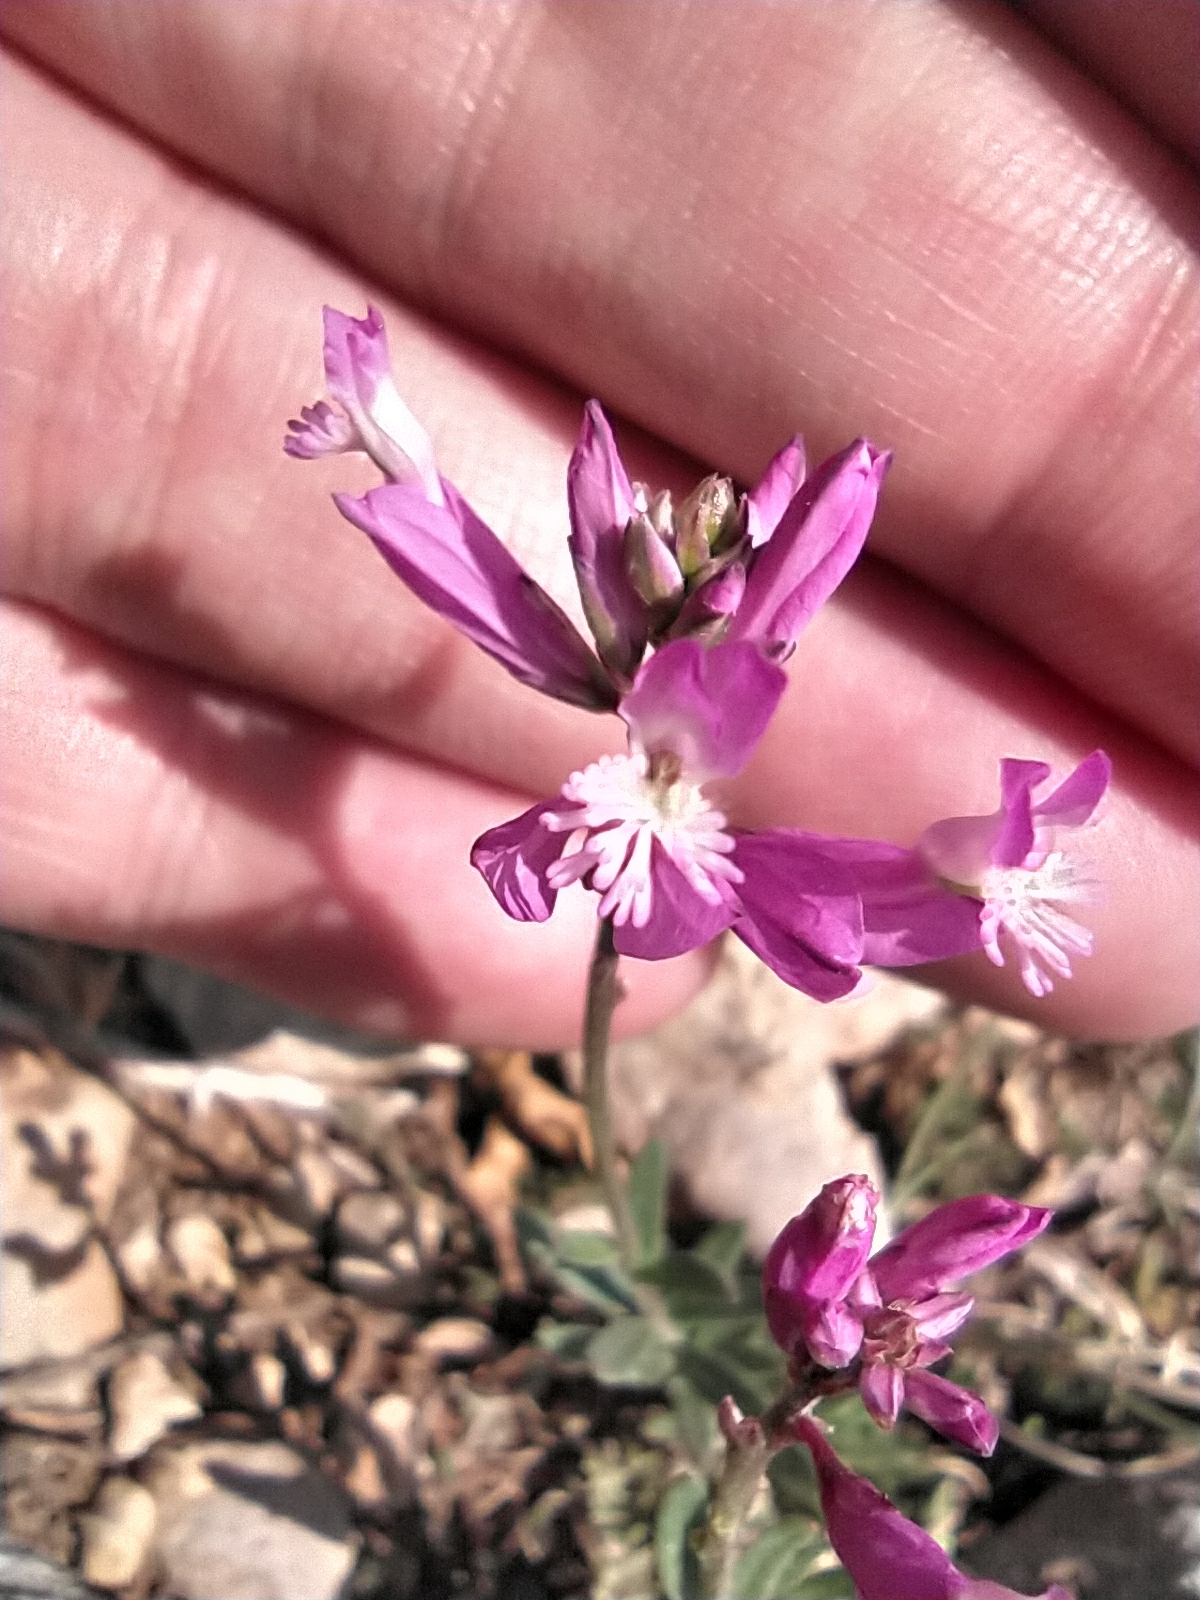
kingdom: Plantae
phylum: Tracheophyta
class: Magnoliopsida
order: Fabales
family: Polygalaceae
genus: Polygala
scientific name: Polygala major
